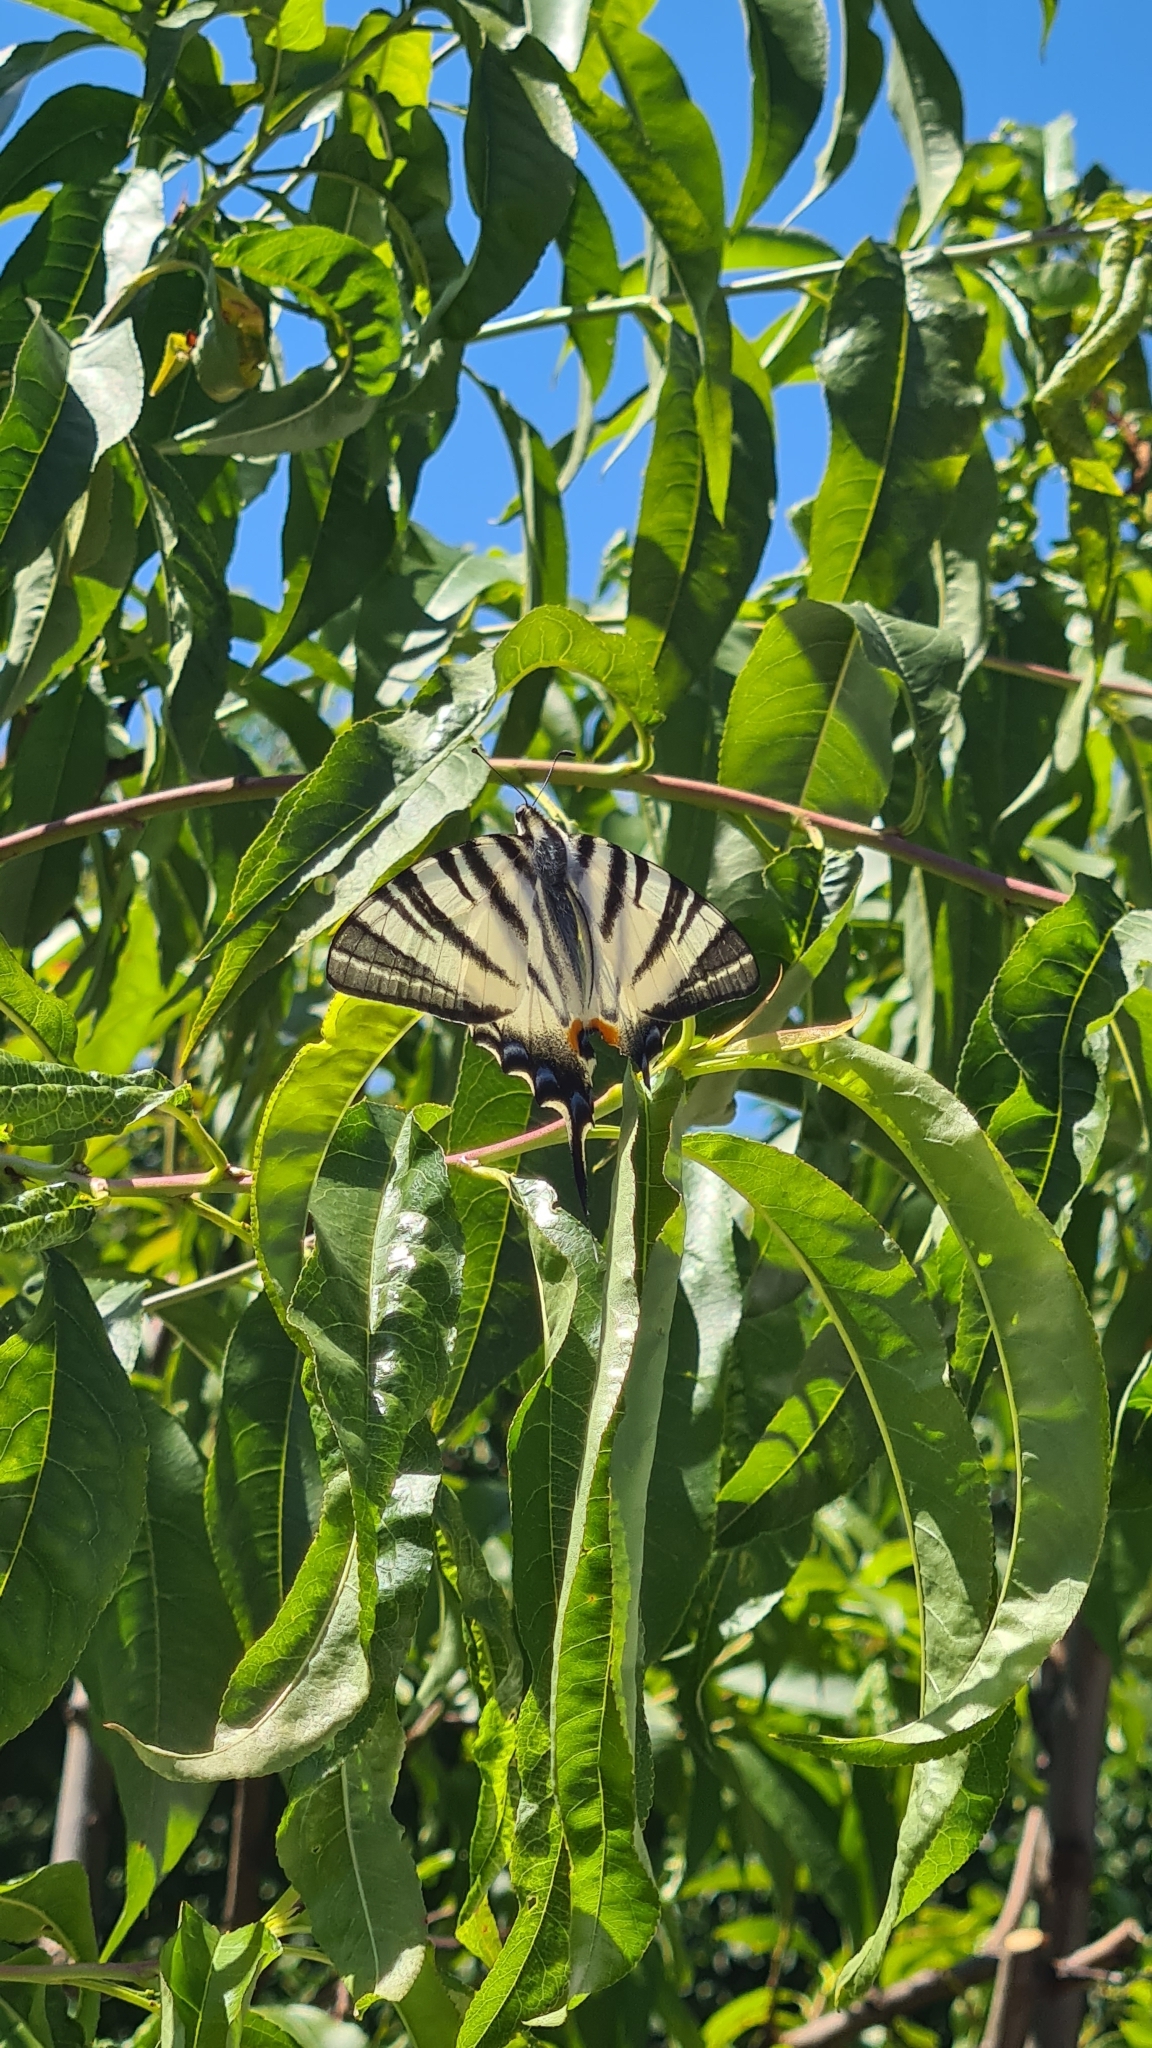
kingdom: Animalia
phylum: Arthropoda
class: Insecta
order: Lepidoptera
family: Papilionidae
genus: Iphiclides
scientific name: Iphiclides podalirius
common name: Scarce swallowtail
